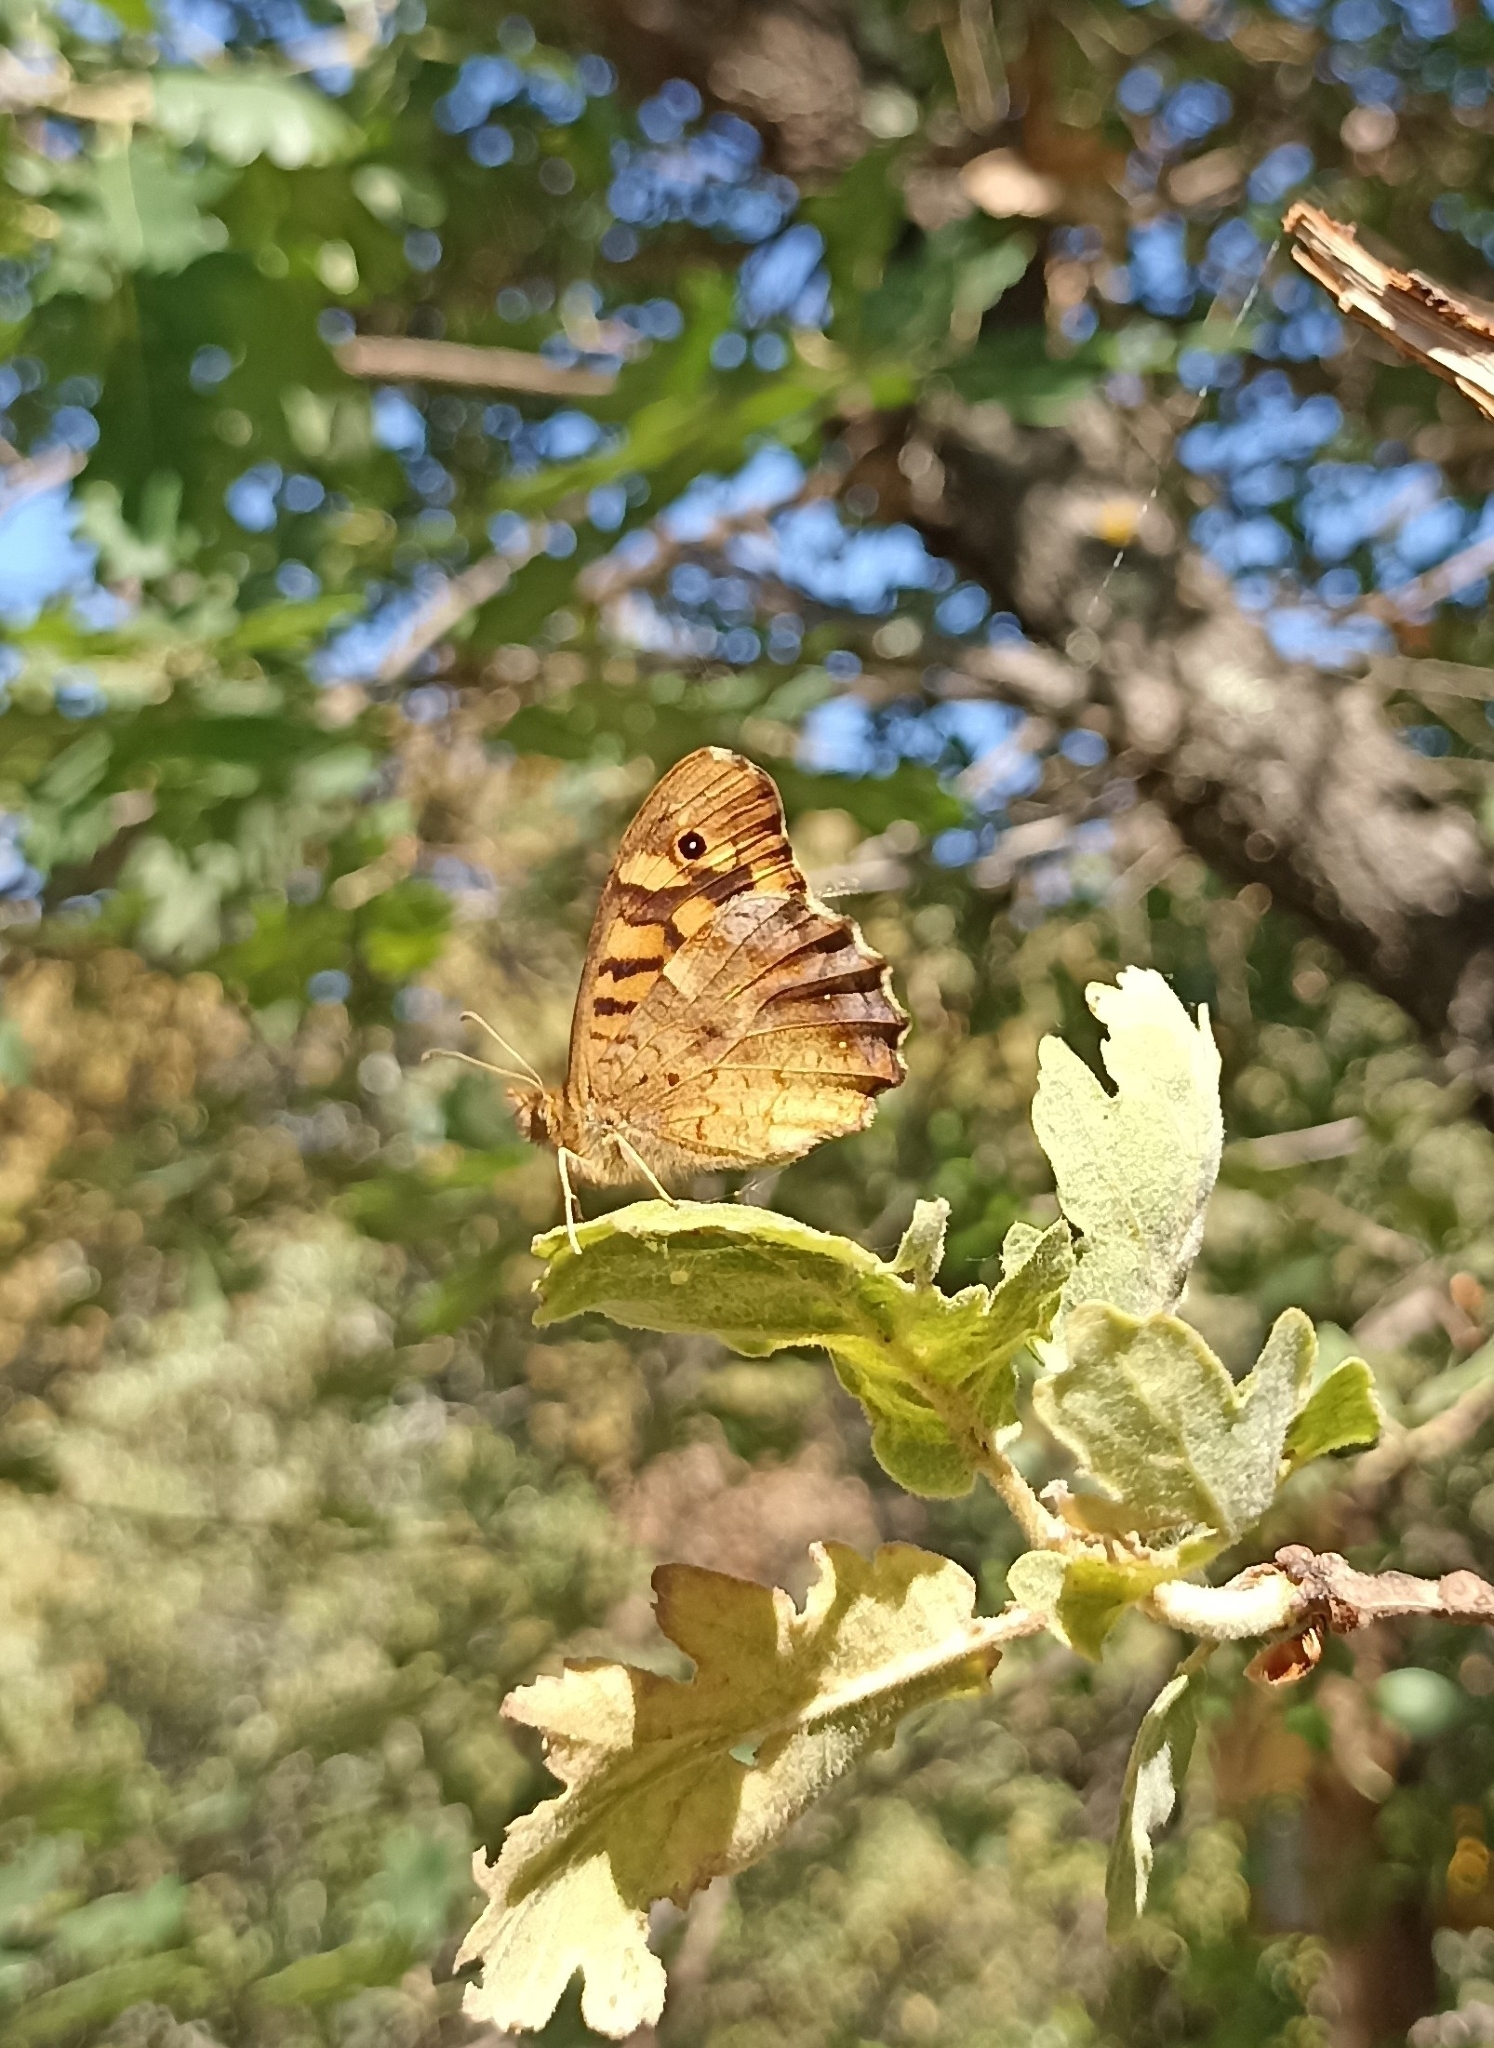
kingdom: Animalia
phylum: Arthropoda
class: Insecta
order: Lepidoptera
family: Nymphalidae
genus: Pararge
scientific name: Pararge aegeria
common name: Speckled wood
